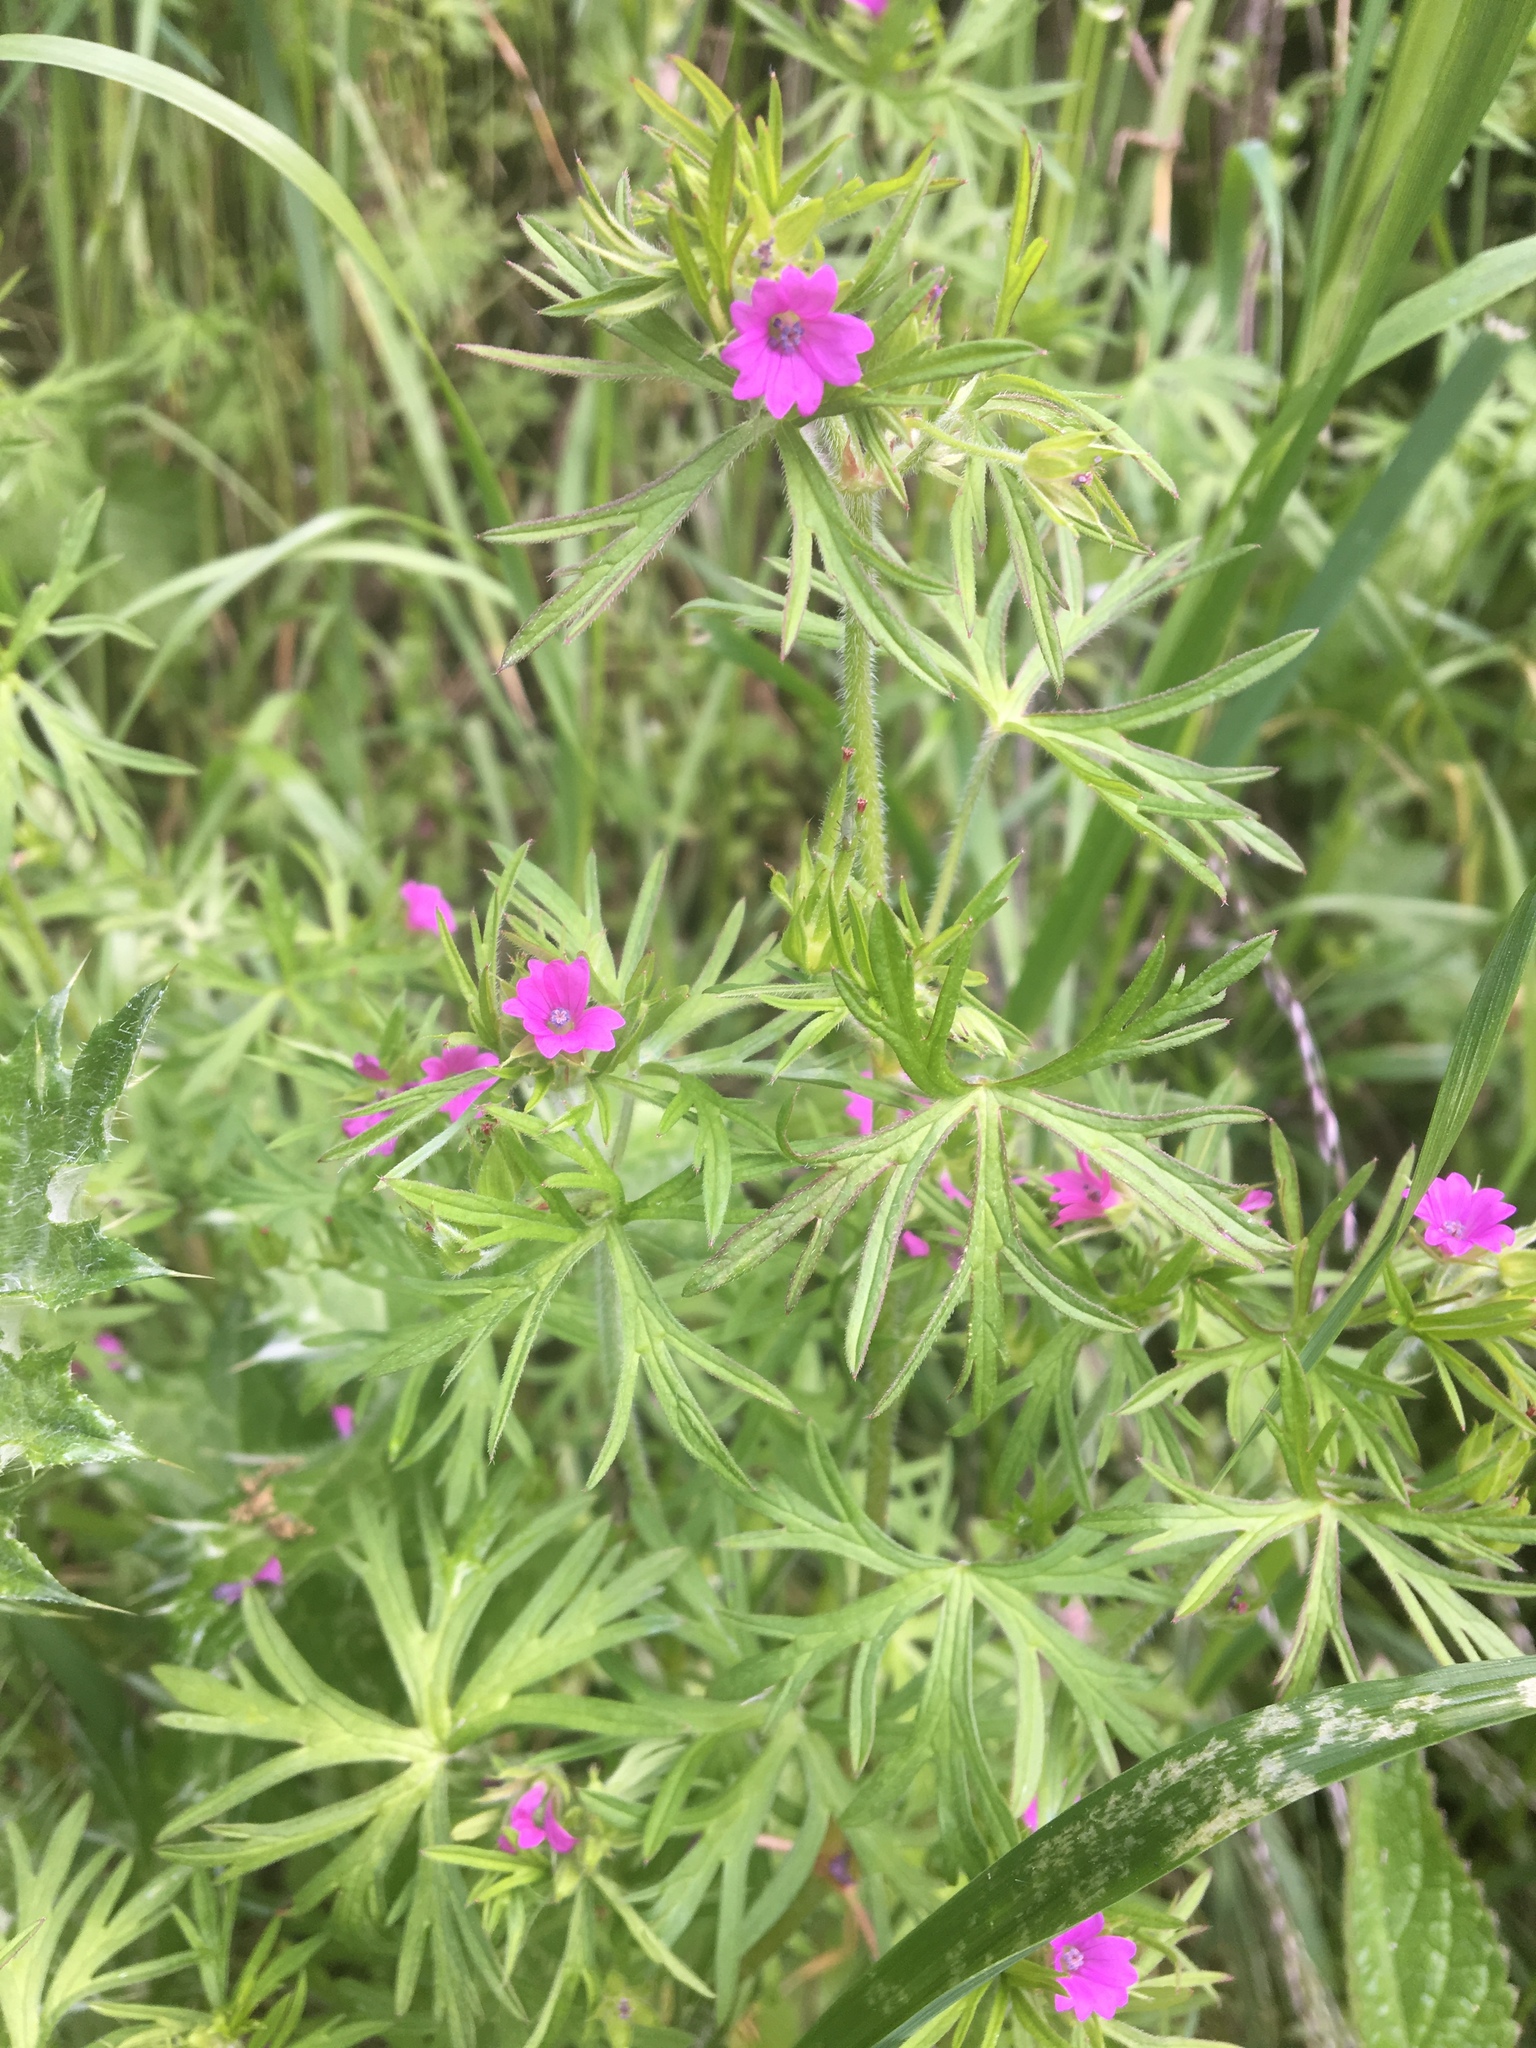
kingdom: Plantae
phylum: Tracheophyta
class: Magnoliopsida
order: Geraniales
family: Geraniaceae
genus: Geranium
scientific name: Geranium dissectum
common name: Cut-leaved crane's-bill
